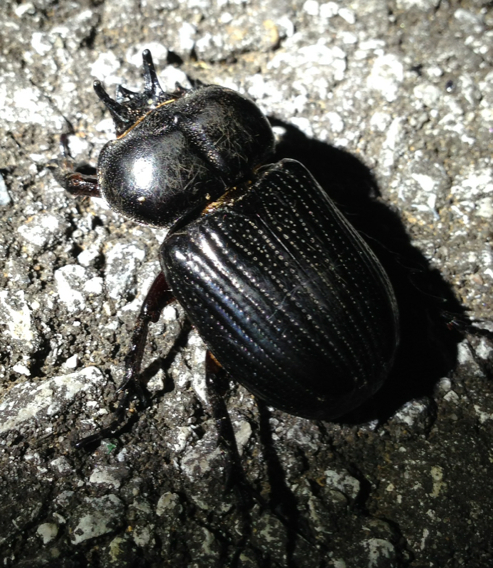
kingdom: Animalia
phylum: Arthropoda
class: Insecta
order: Coleoptera
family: Scarabaeidae
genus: Phileurus
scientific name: Phileurus truncatus
